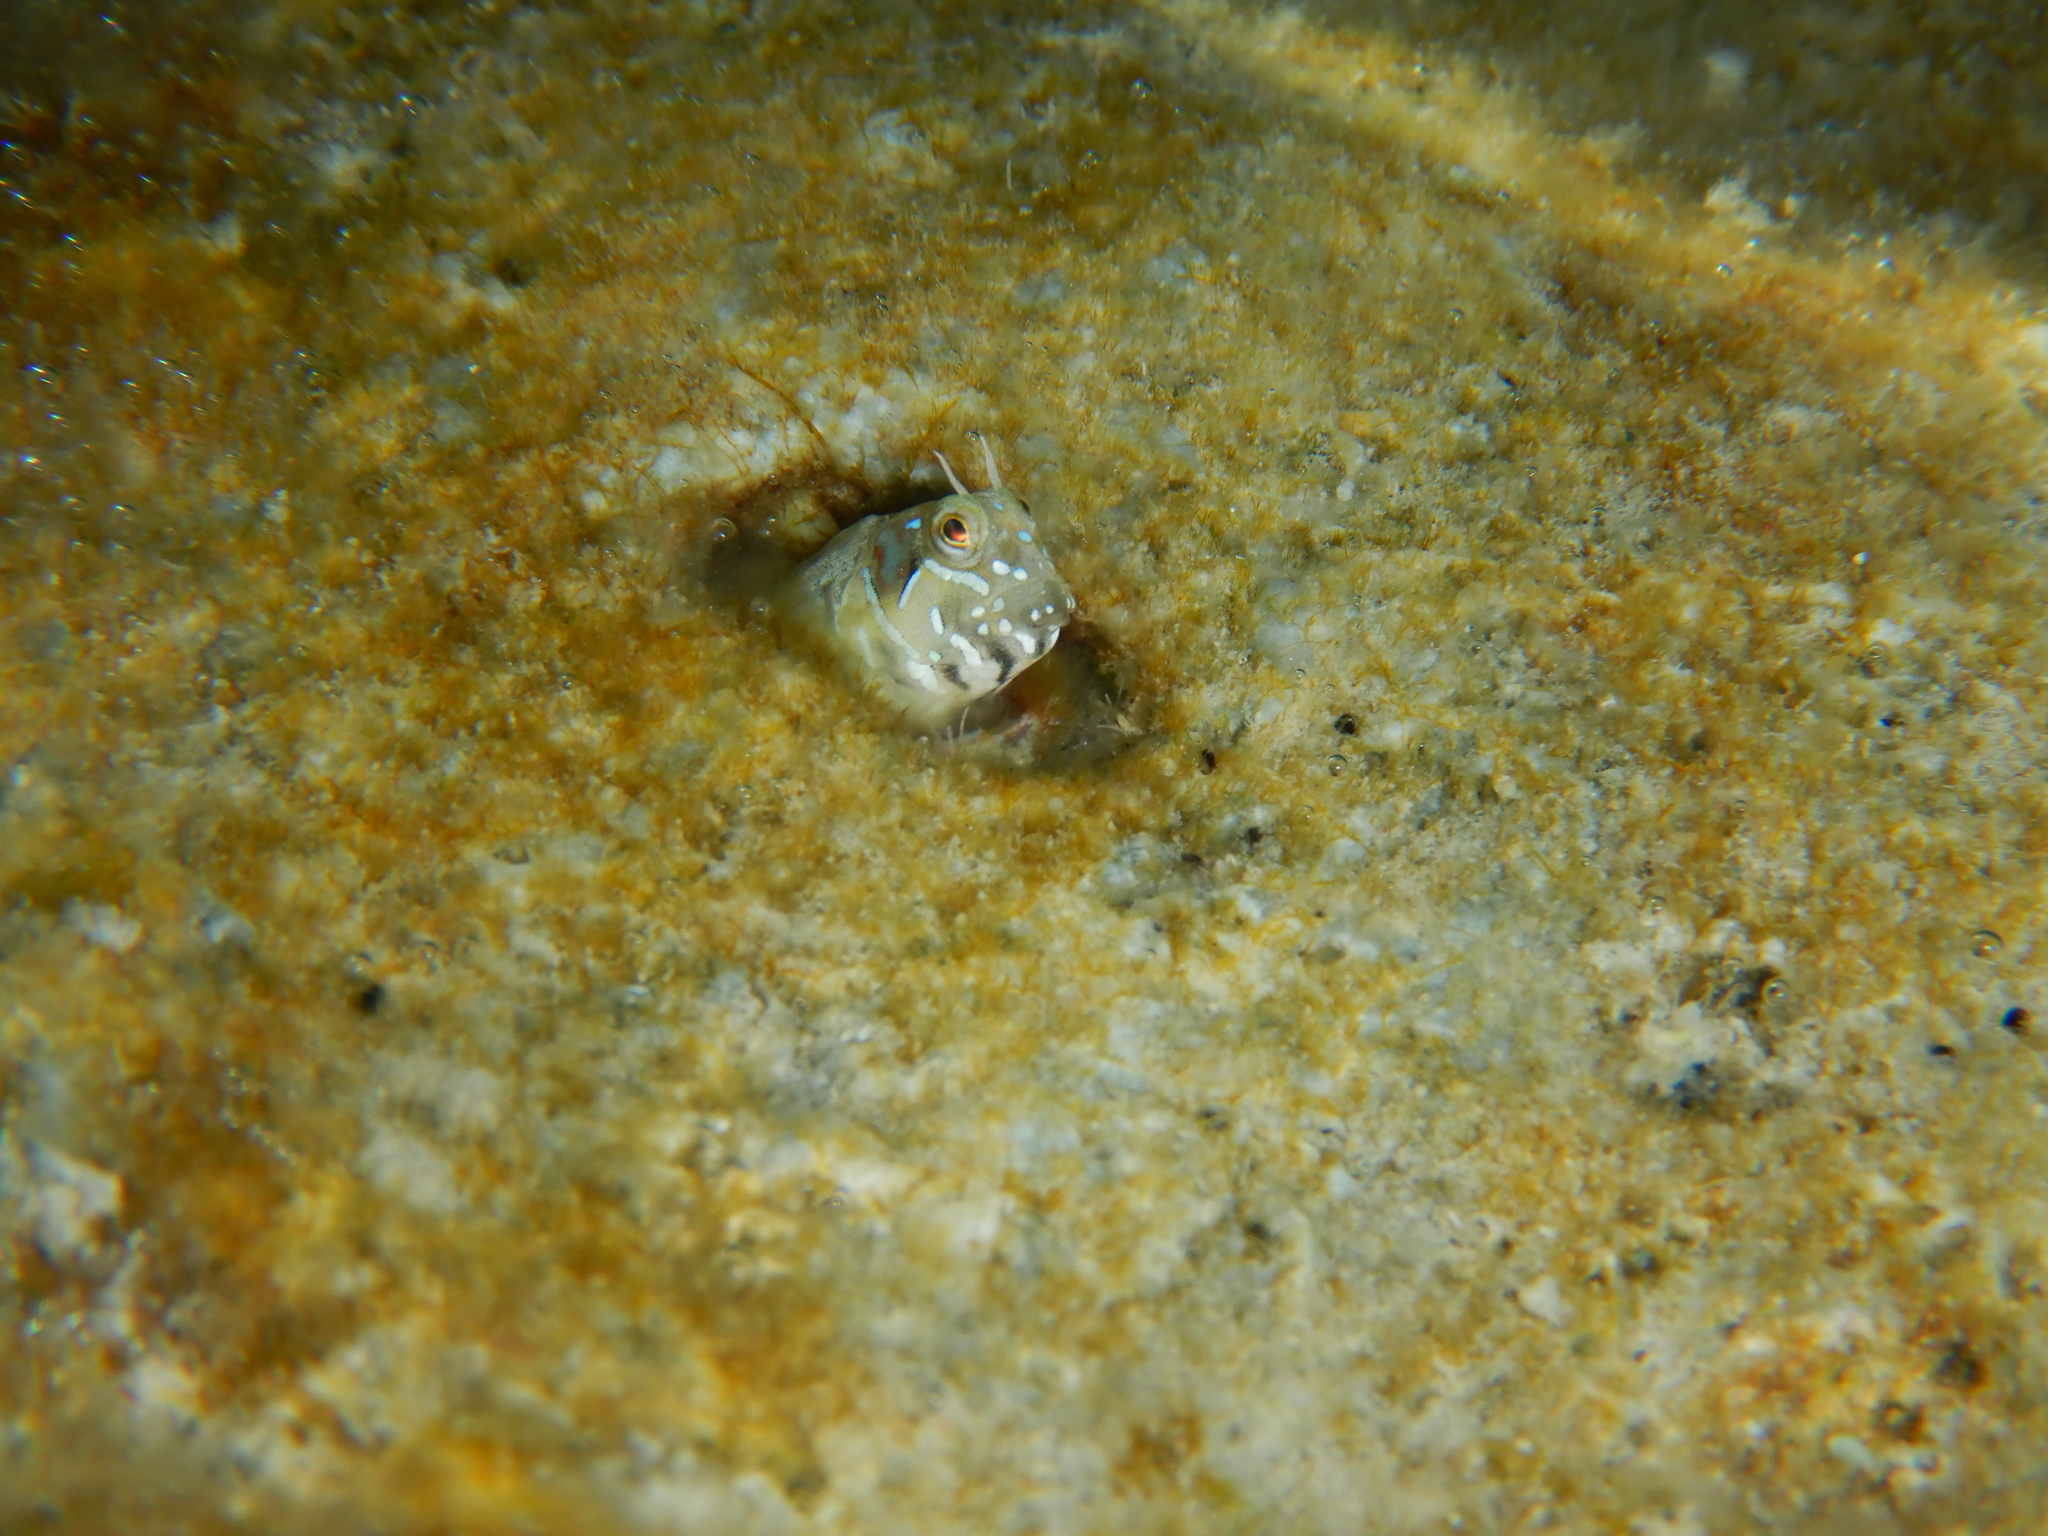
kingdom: Animalia
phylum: Chordata
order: Perciformes
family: Blenniidae
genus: Aidablennius
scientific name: Aidablennius sphynx
